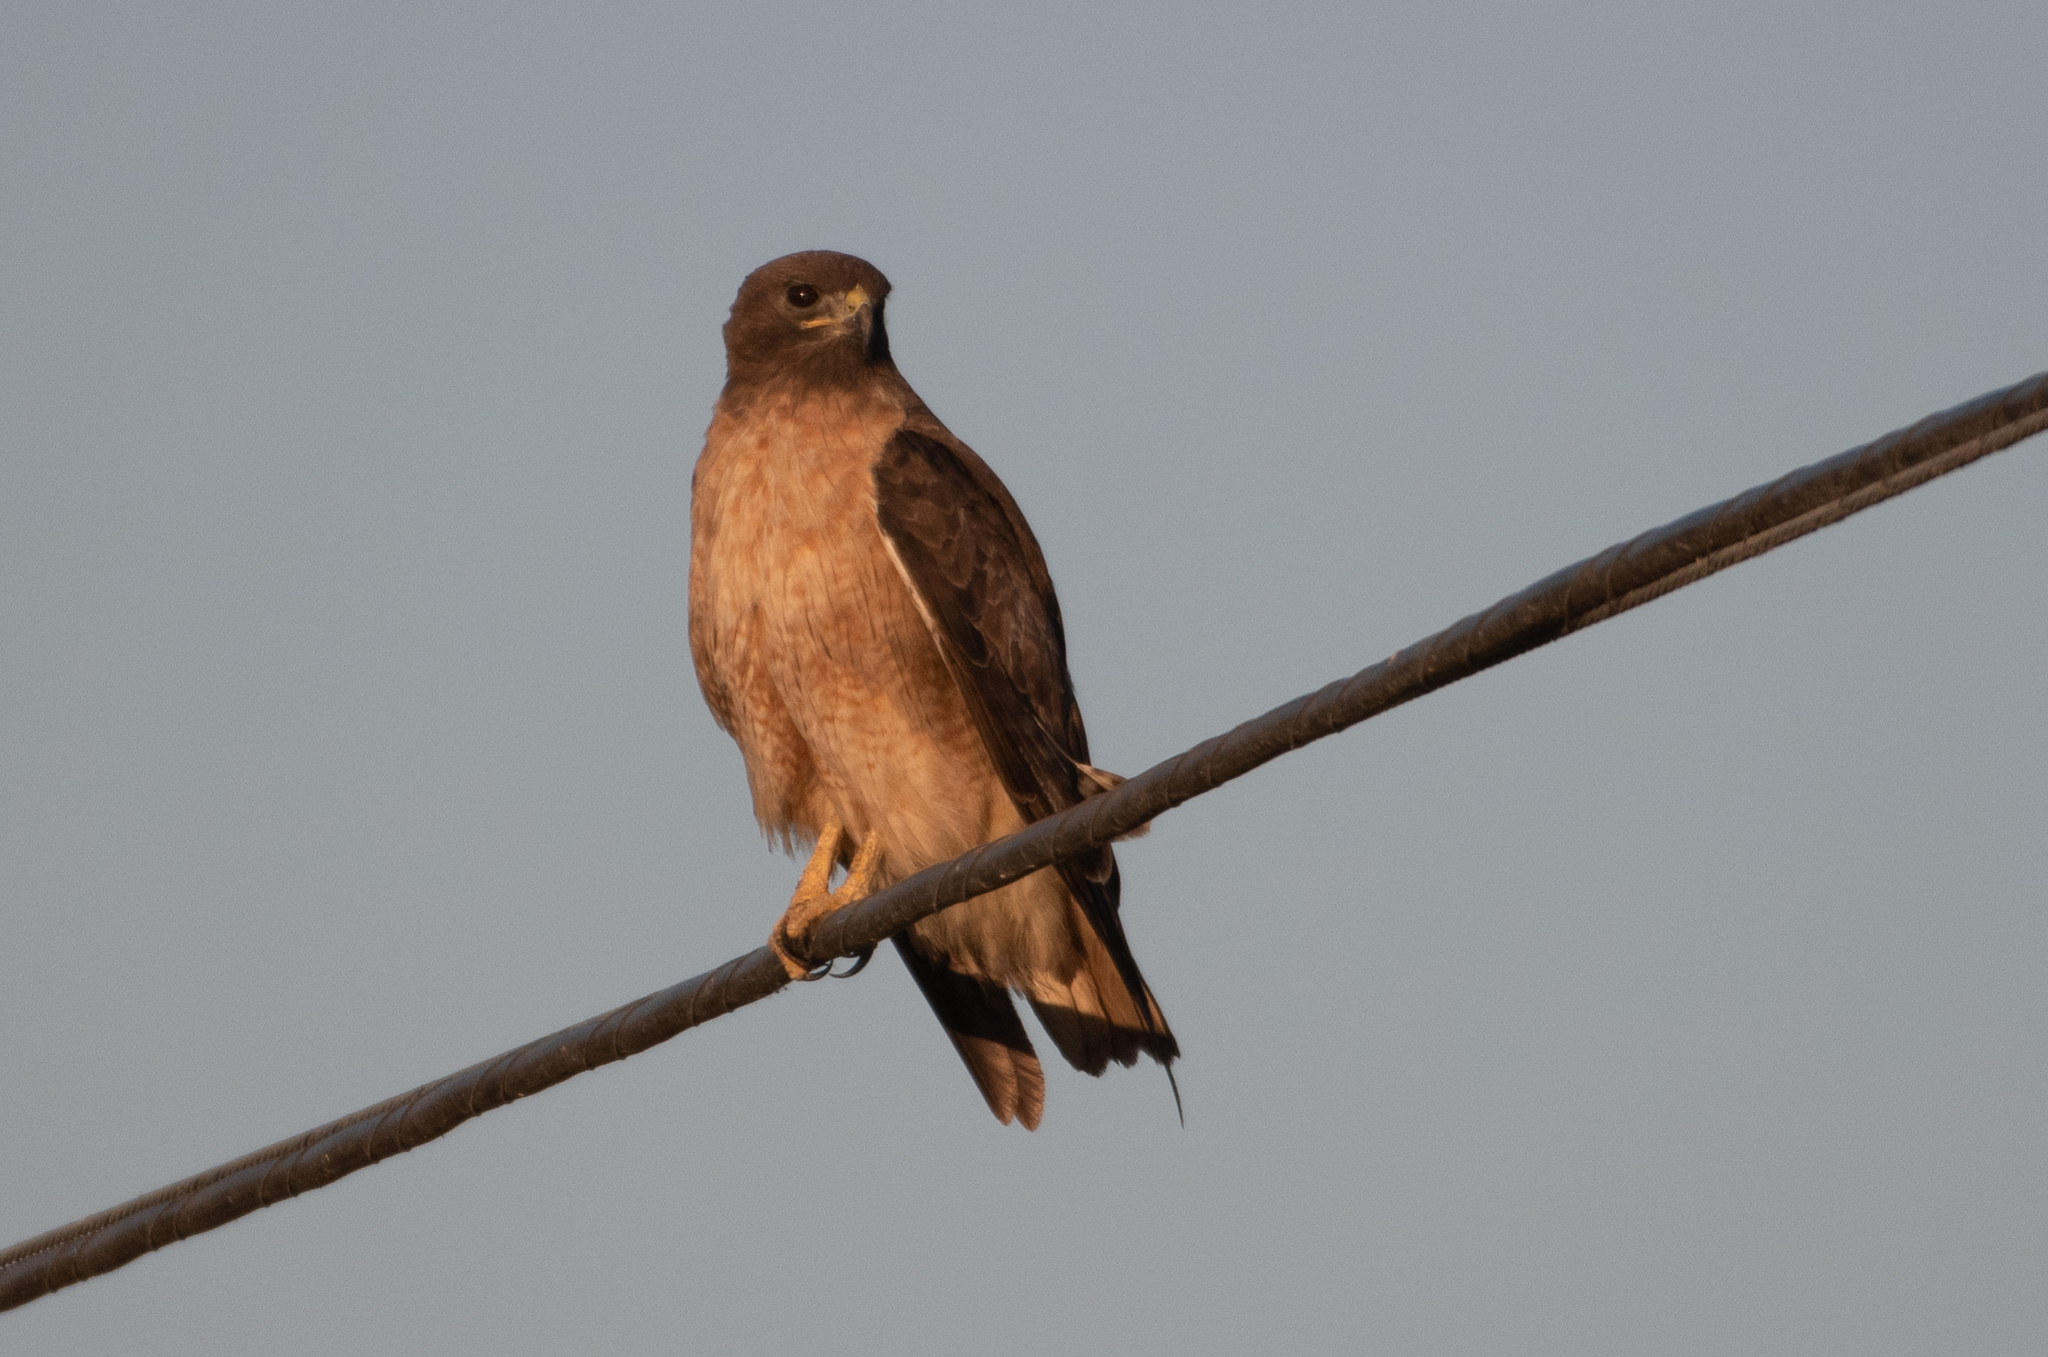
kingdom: Animalia
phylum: Chordata
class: Aves
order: Accipitriformes
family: Accipitridae
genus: Buteo
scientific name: Buteo jamaicensis
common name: Red-tailed hawk
